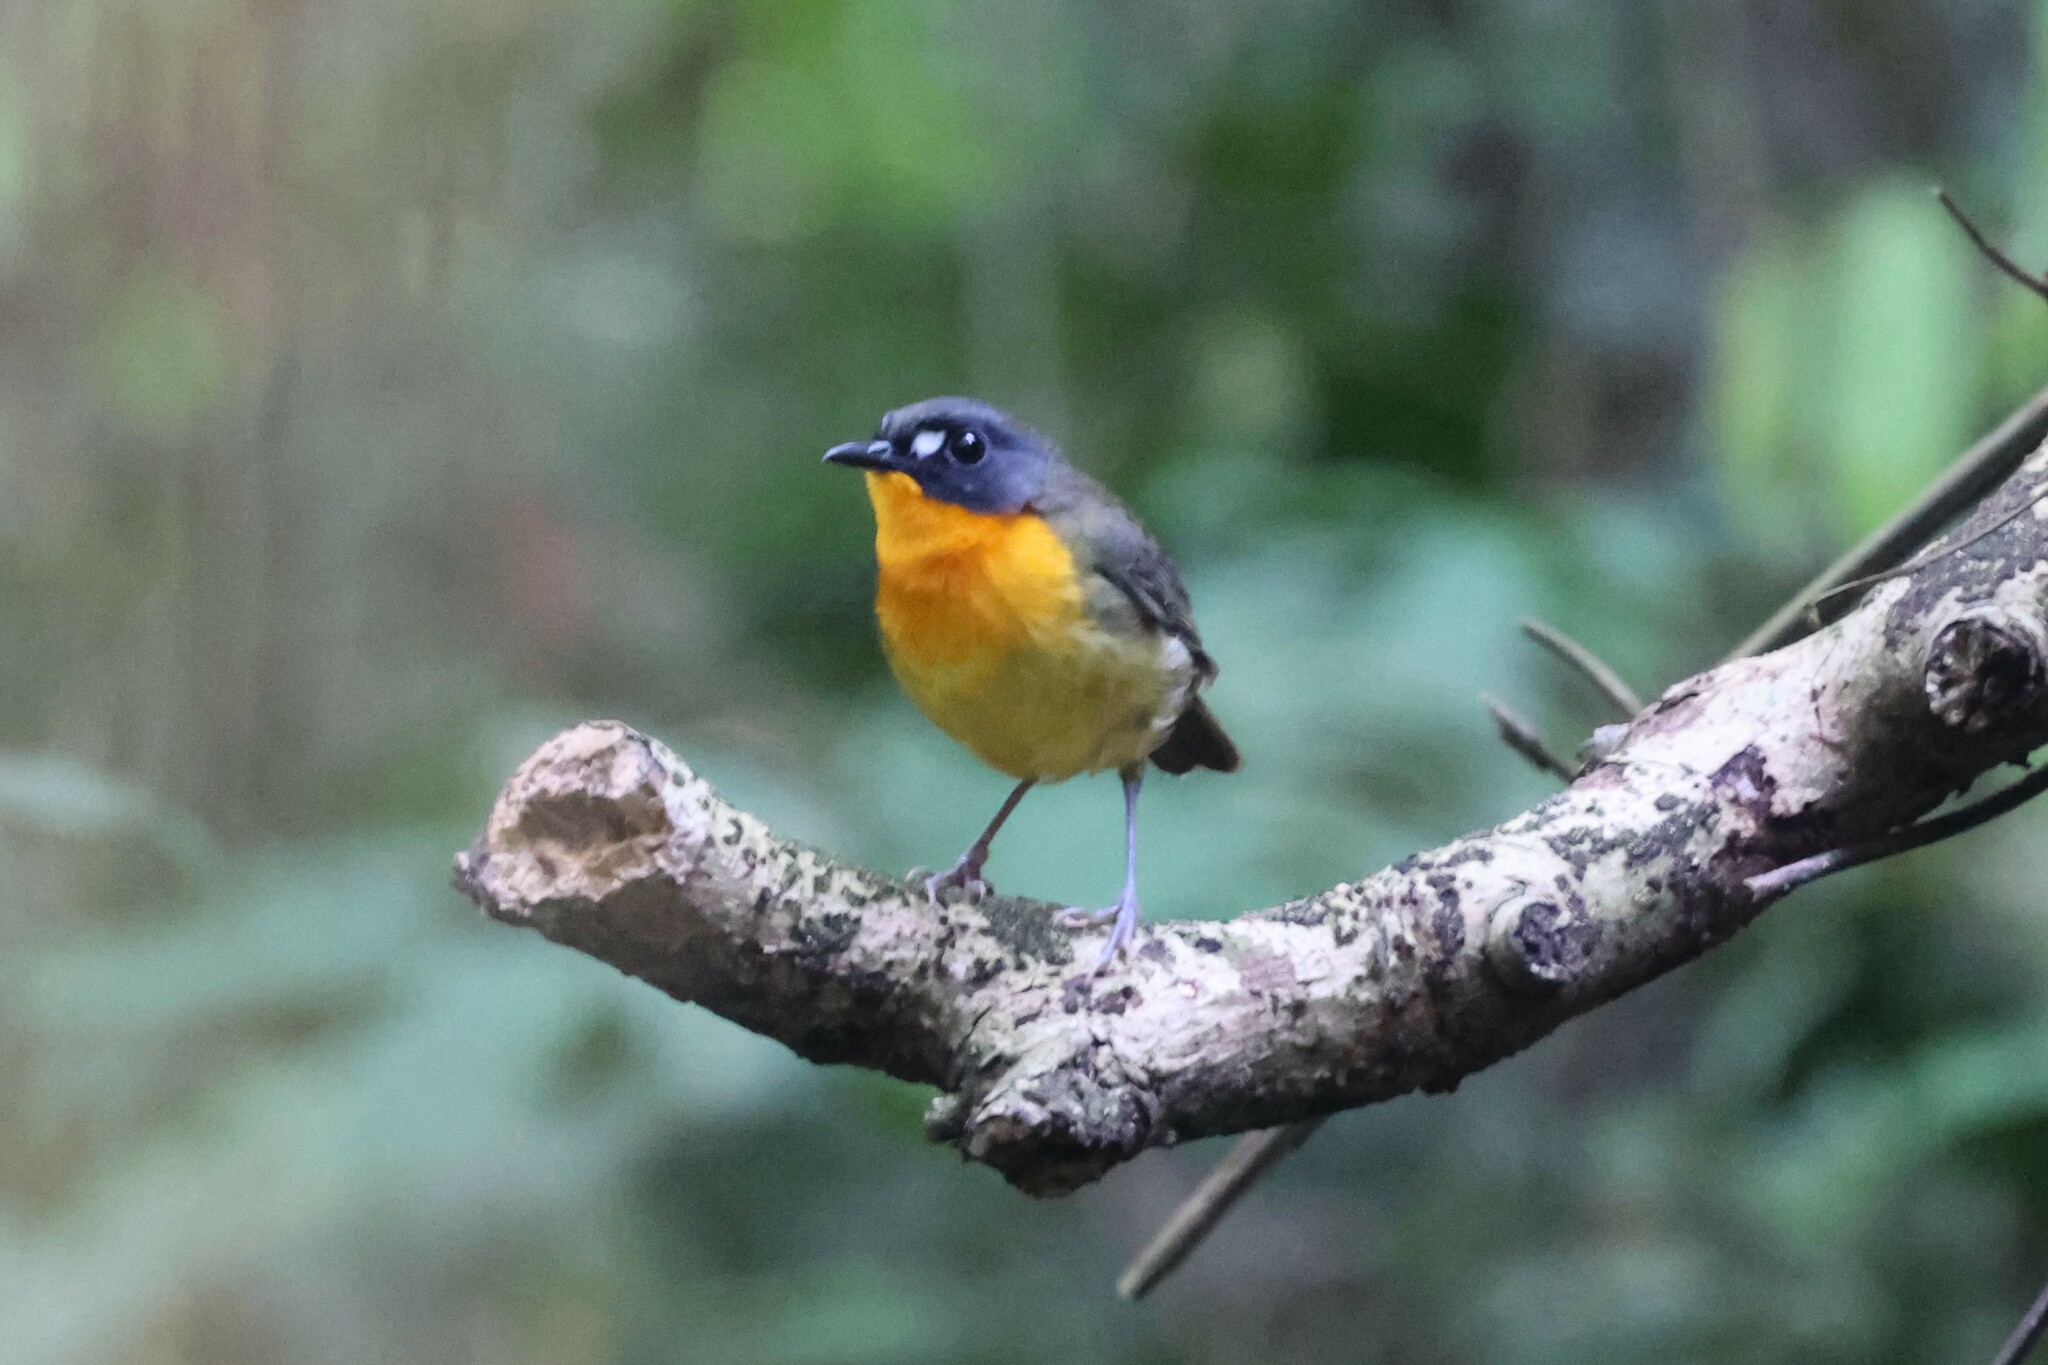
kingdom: Animalia
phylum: Chordata
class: Aves
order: Passeriformes
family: Muscicapidae
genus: Stiphrornis
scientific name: Stiphrornis
